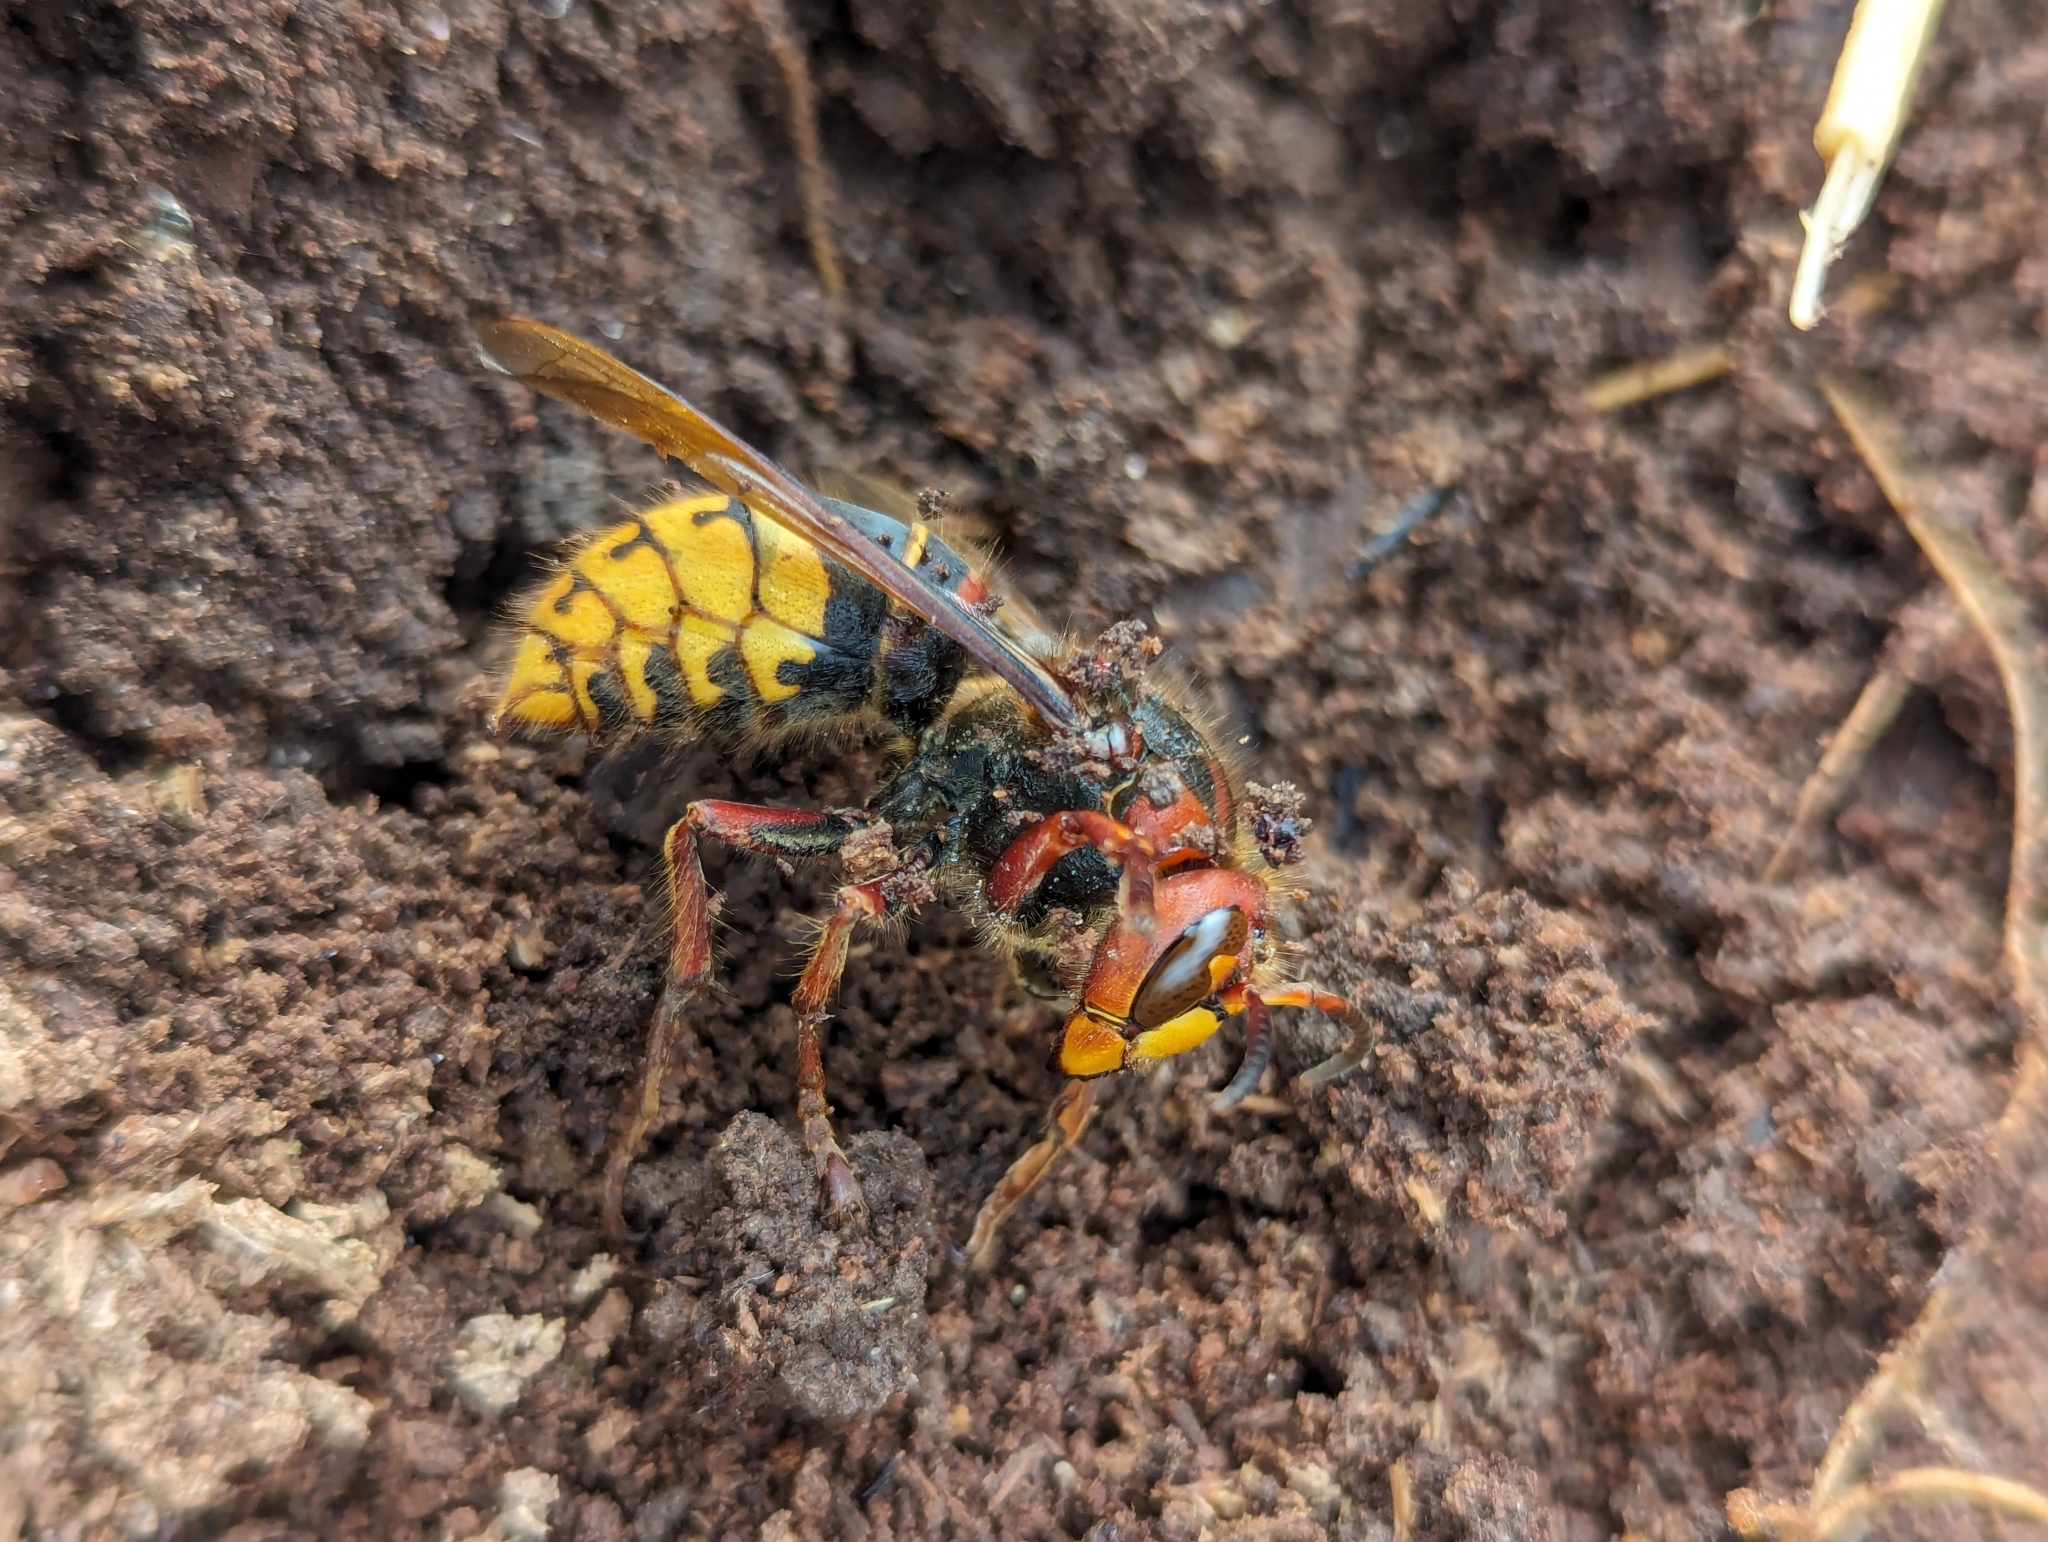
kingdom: Animalia
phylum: Arthropoda
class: Insecta
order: Hymenoptera
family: Vespidae
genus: Vespa
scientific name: Vespa crabro
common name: Hornet
